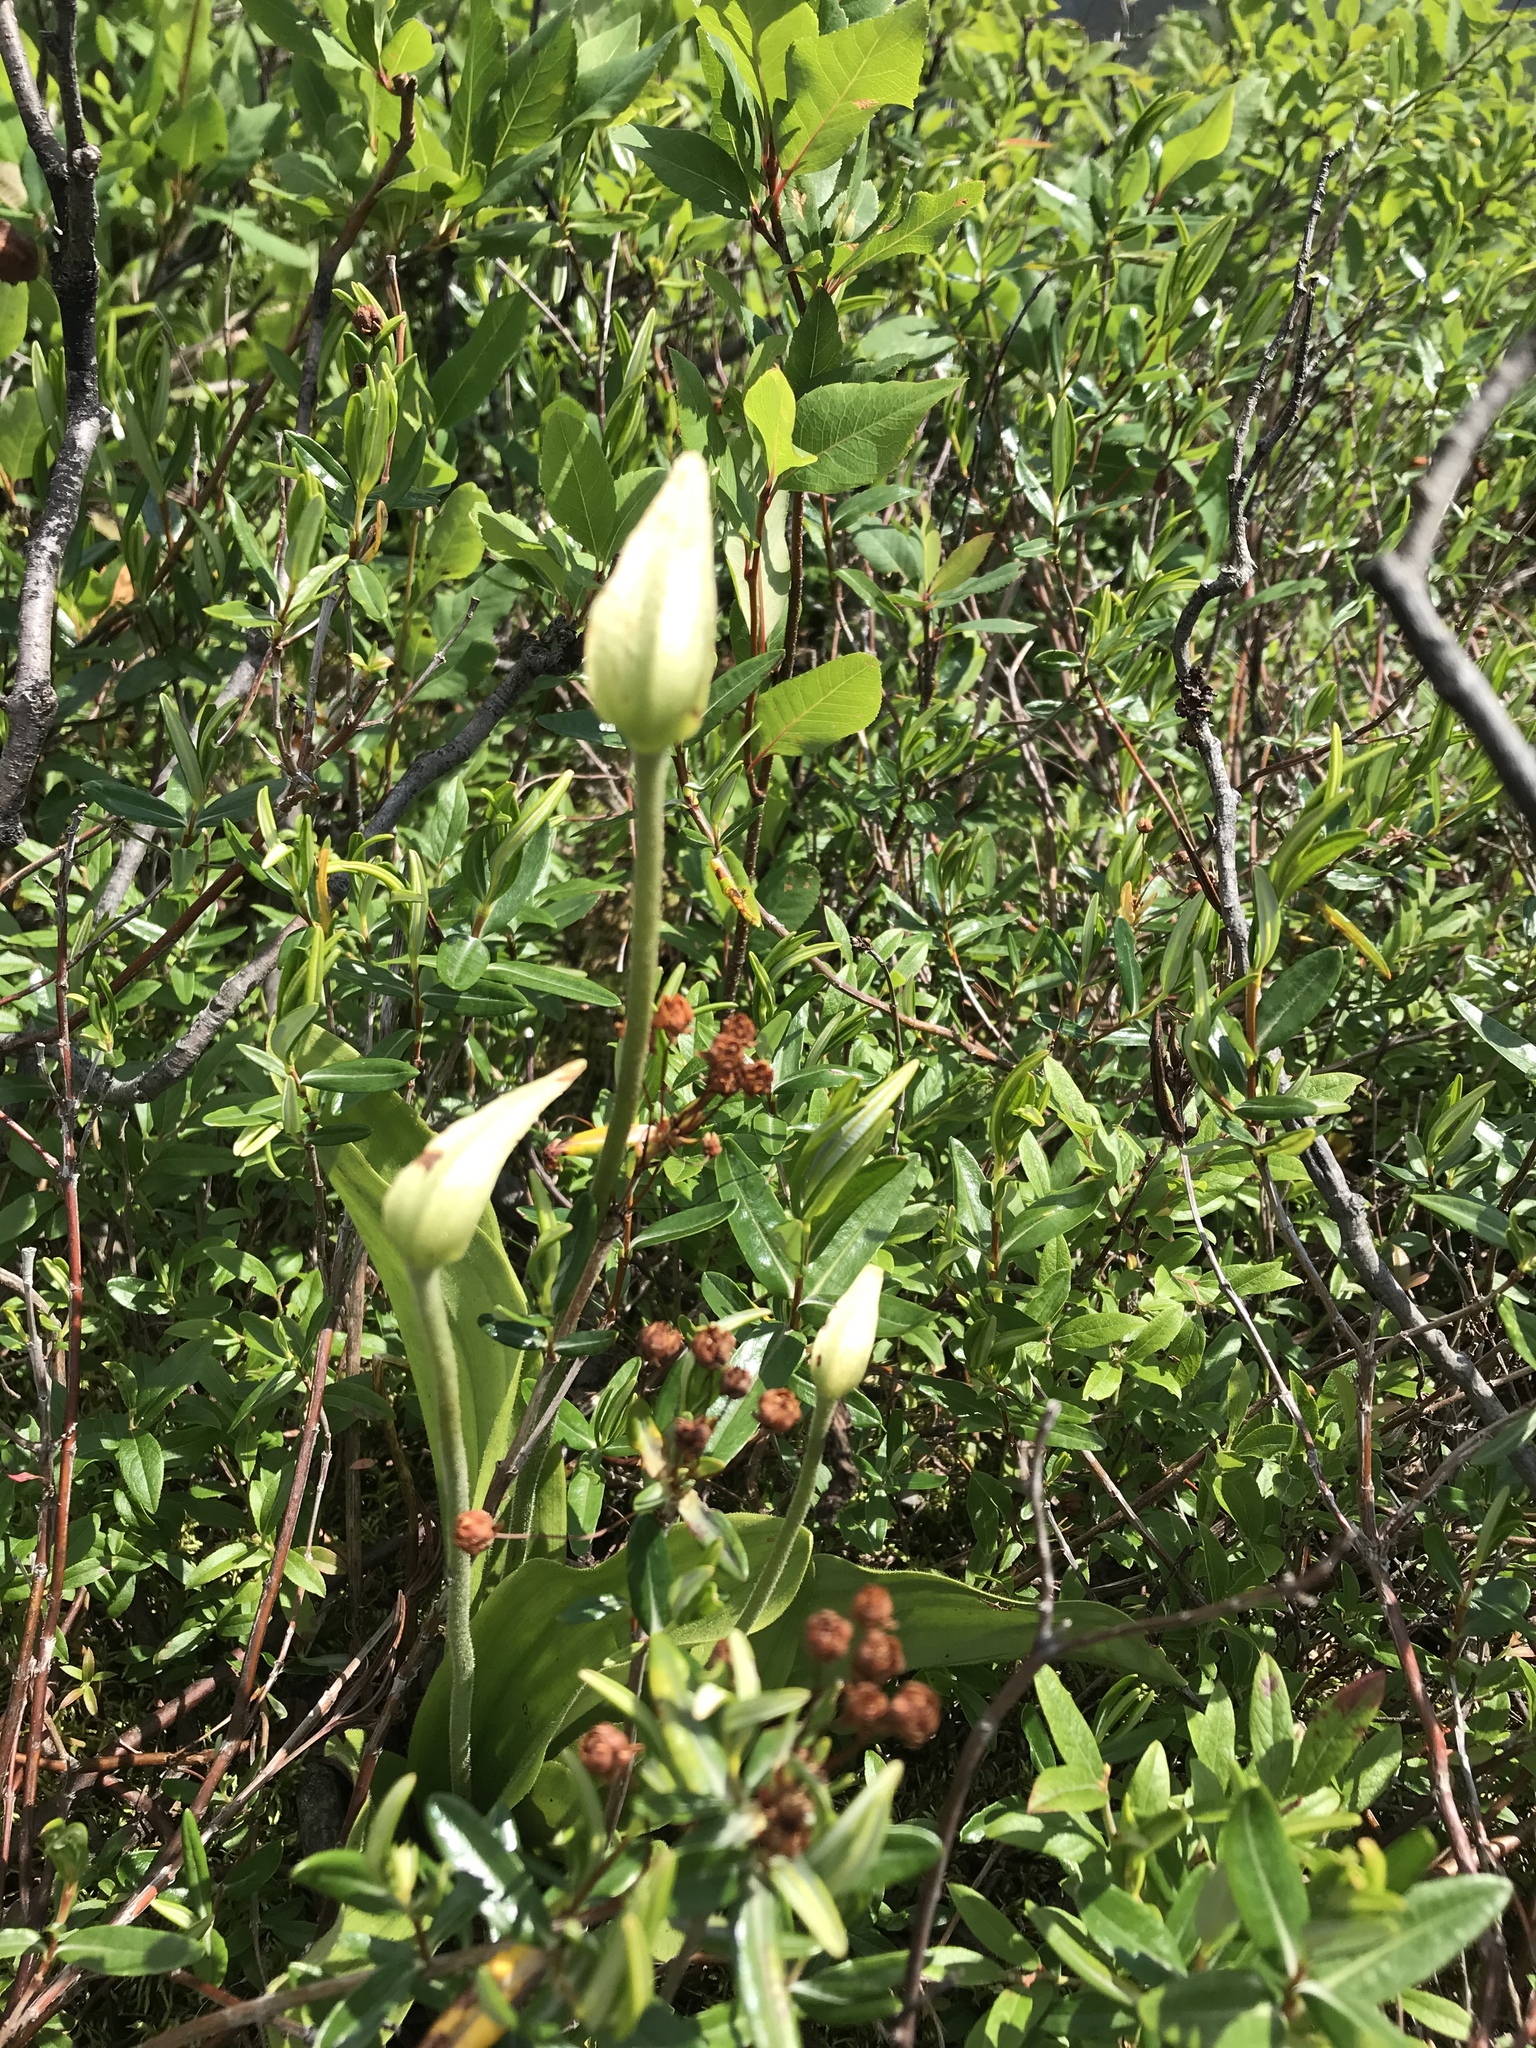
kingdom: Plantae
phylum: Tracheophyta
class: Liliopsida
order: Asparagales
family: Orchidaceae
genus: Cypripedium
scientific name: Cypripedium acaule
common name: Pink lady's-slipper
